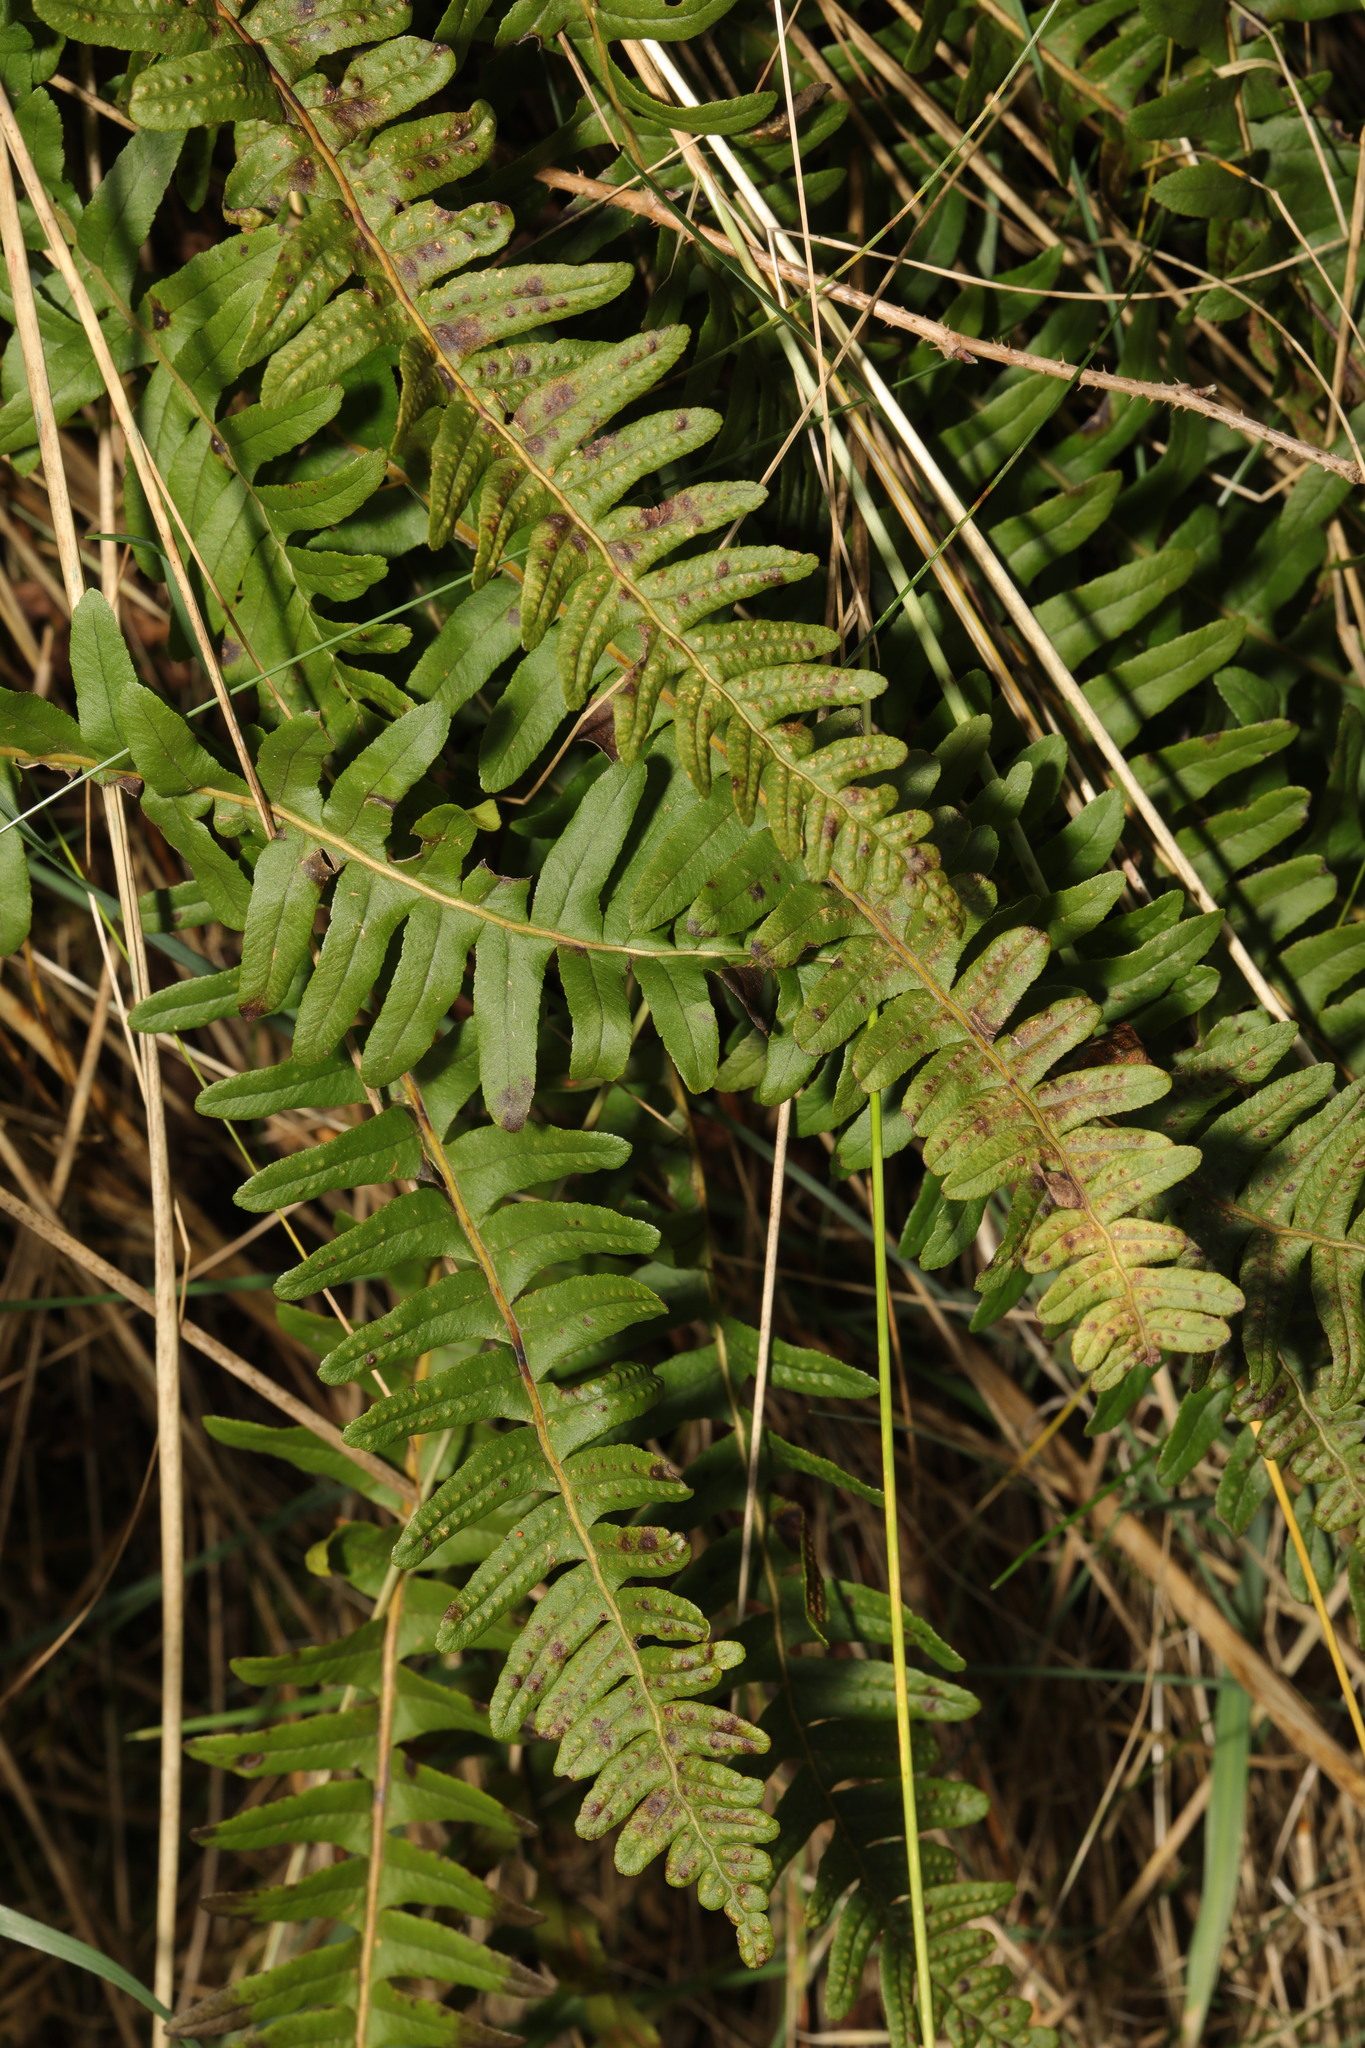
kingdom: Plantae
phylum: Tracheophyta
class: Polypodiopsida
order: Polypodiales
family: Polypodiaceae
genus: Polypodium
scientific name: Polypodium vulgare
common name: Common polypody
